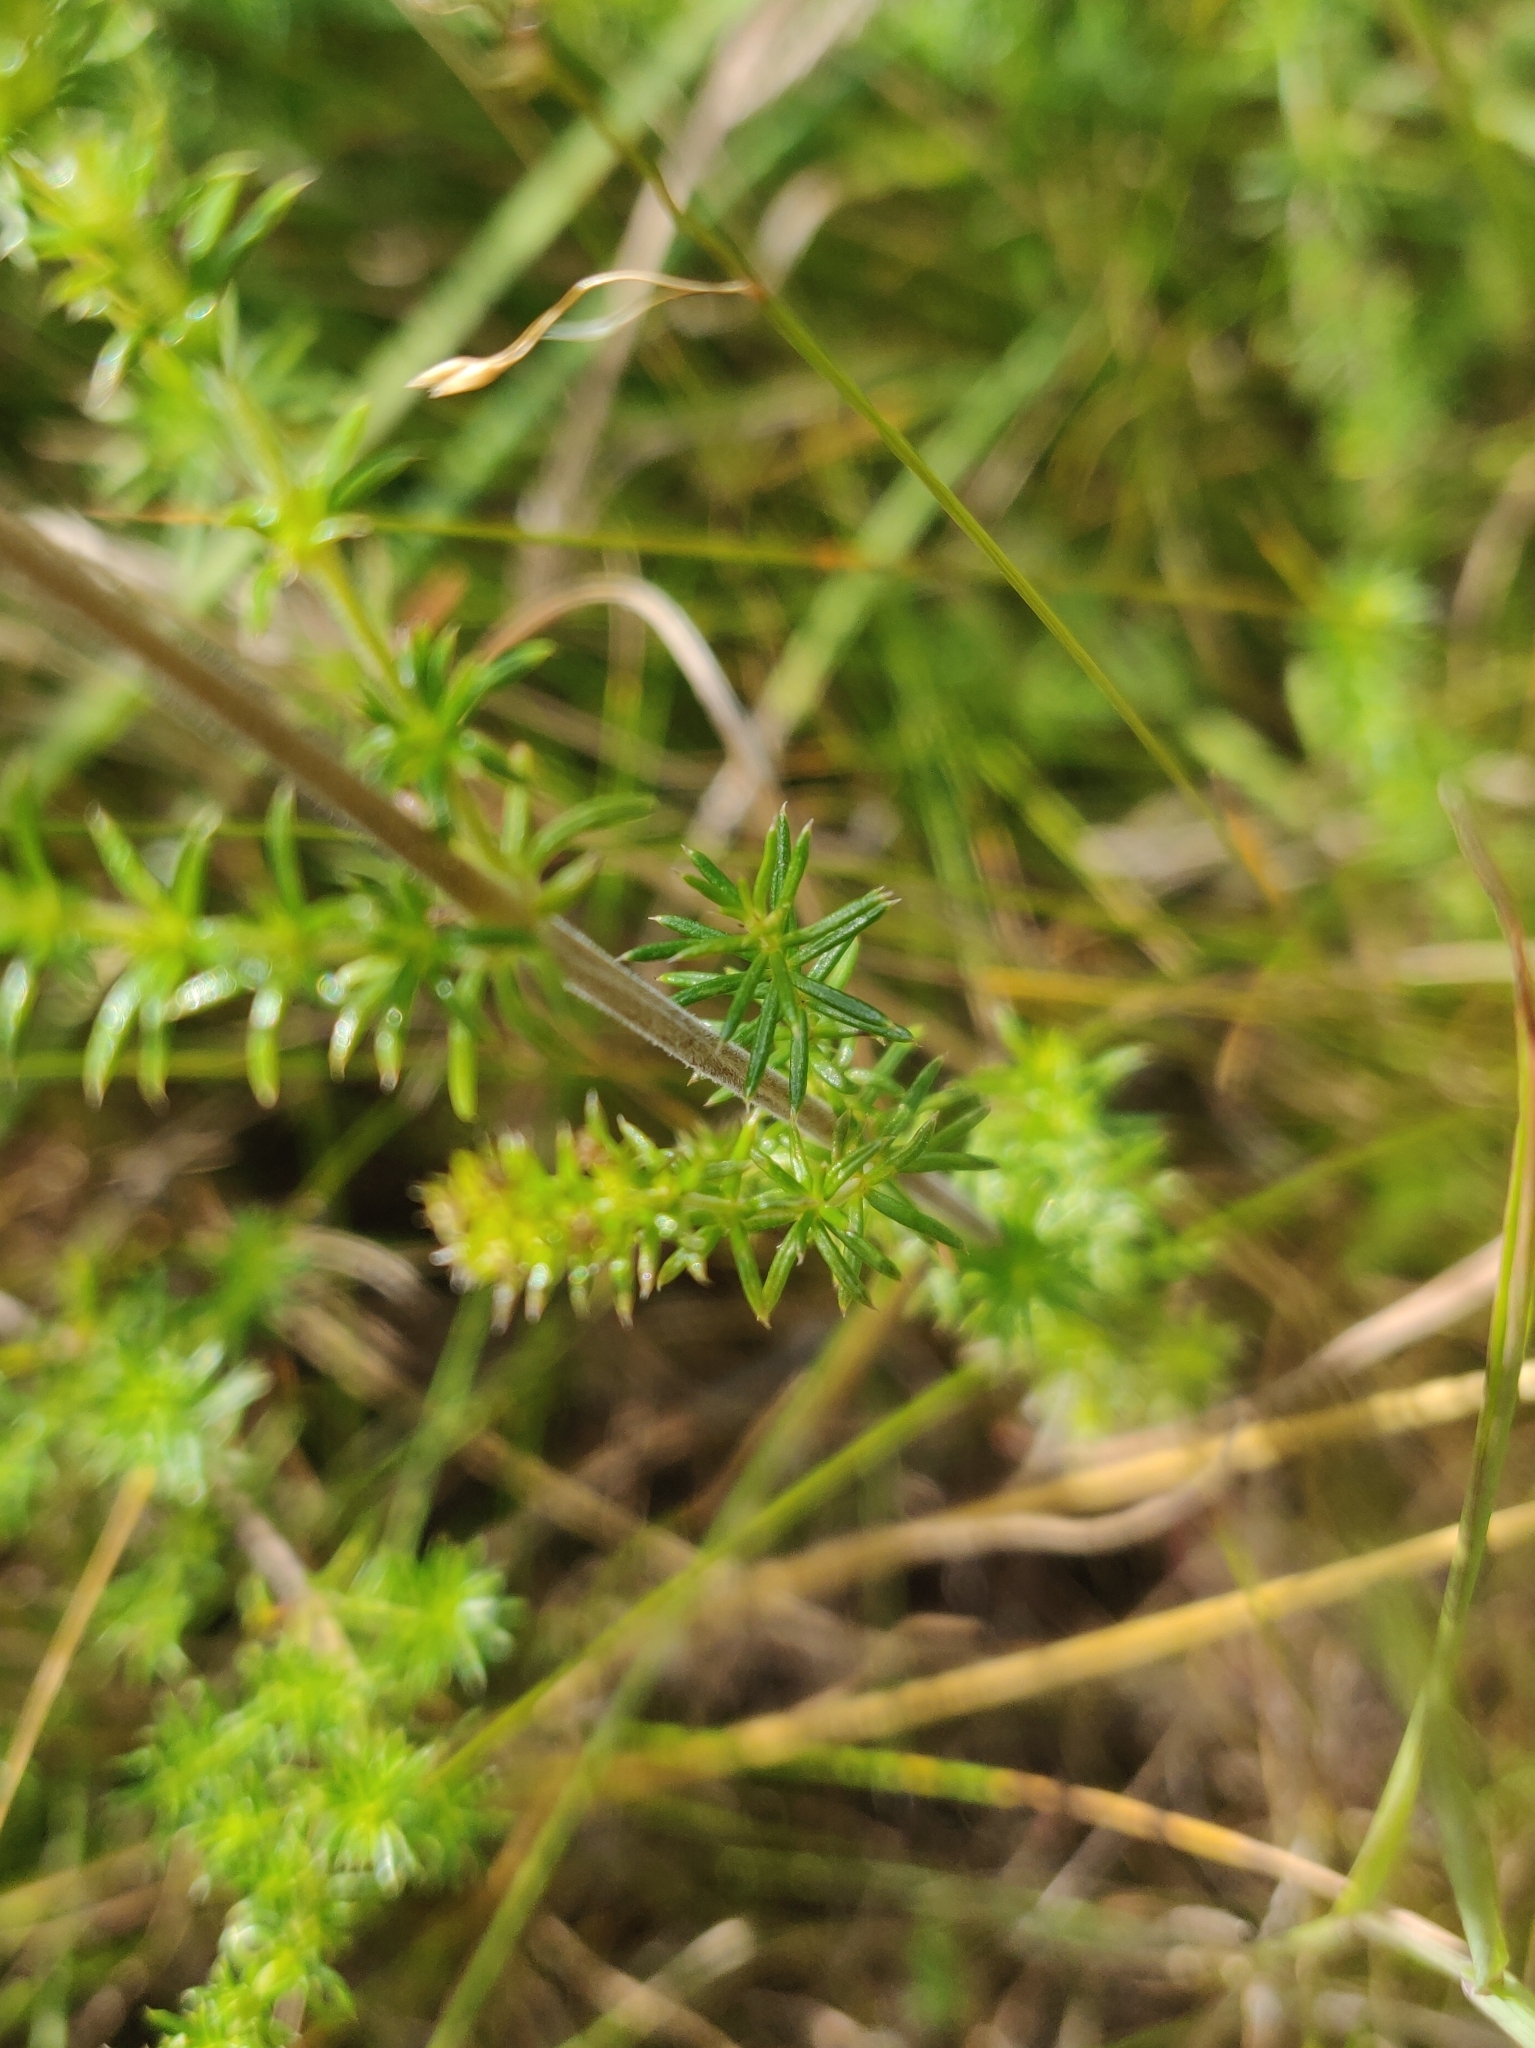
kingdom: Plantae
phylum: Tracheophyta
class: Magnoliopsida
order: Gentianales
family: Rubiaceae
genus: Galium
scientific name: Galium verum
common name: Lady's bedstraw
